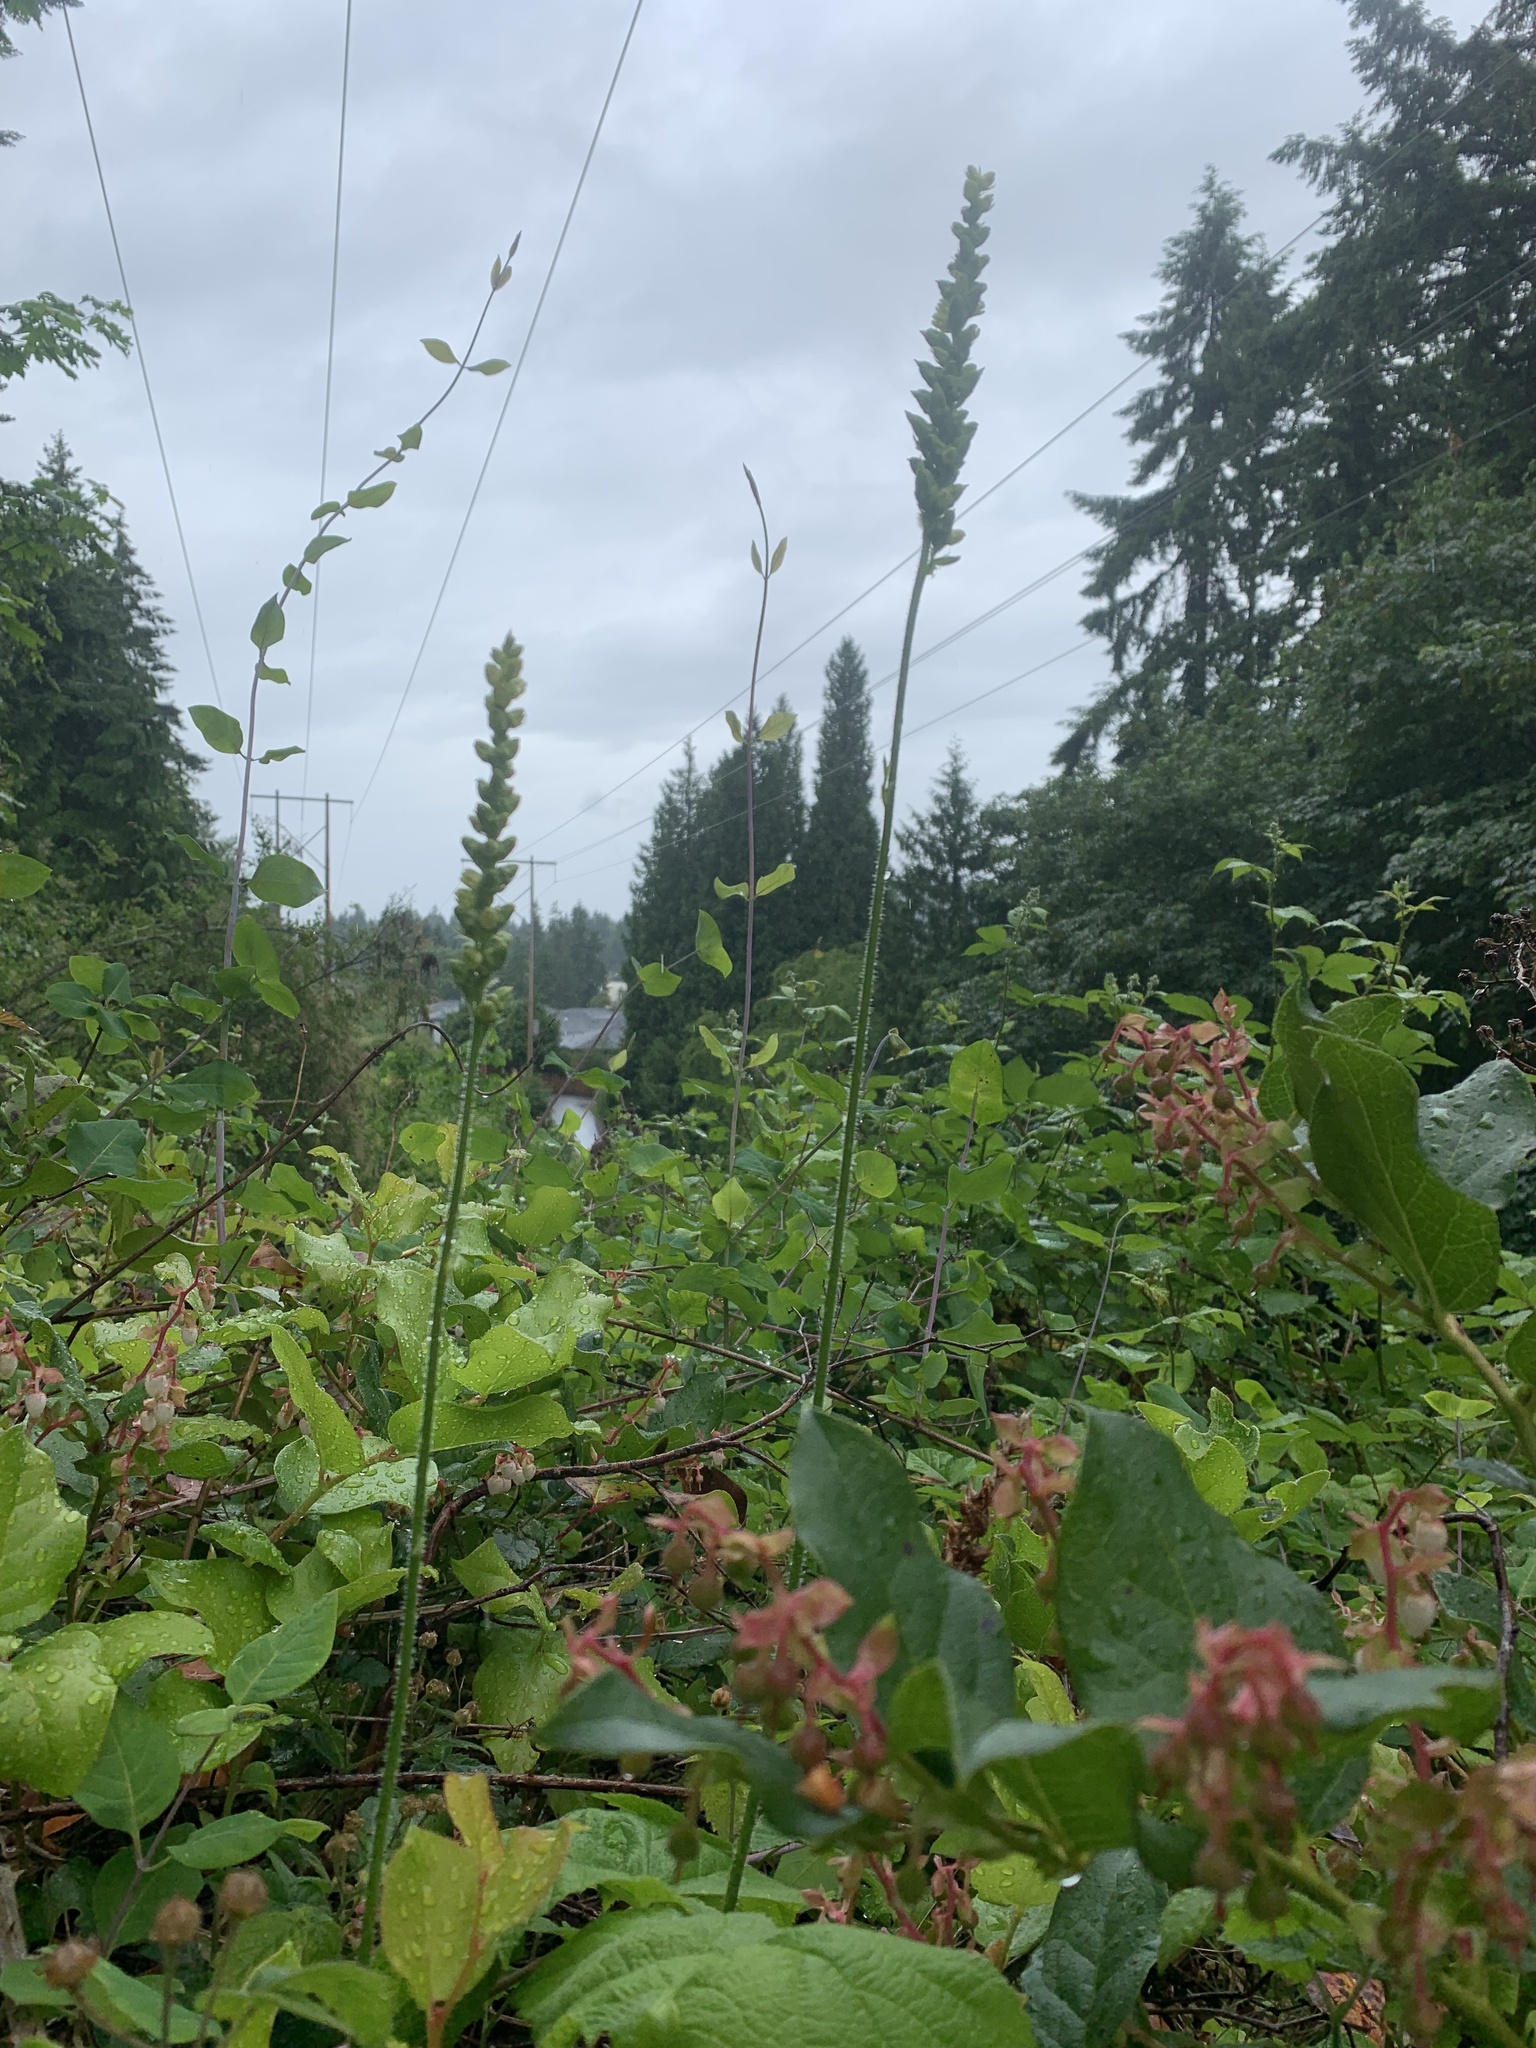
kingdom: Plantae
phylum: Tracheophyta
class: Magnoliopsida
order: Saxifragales
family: Saxifragaceae
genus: Heuchera
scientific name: Heuchera chlorantha
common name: Meadow alumroot
